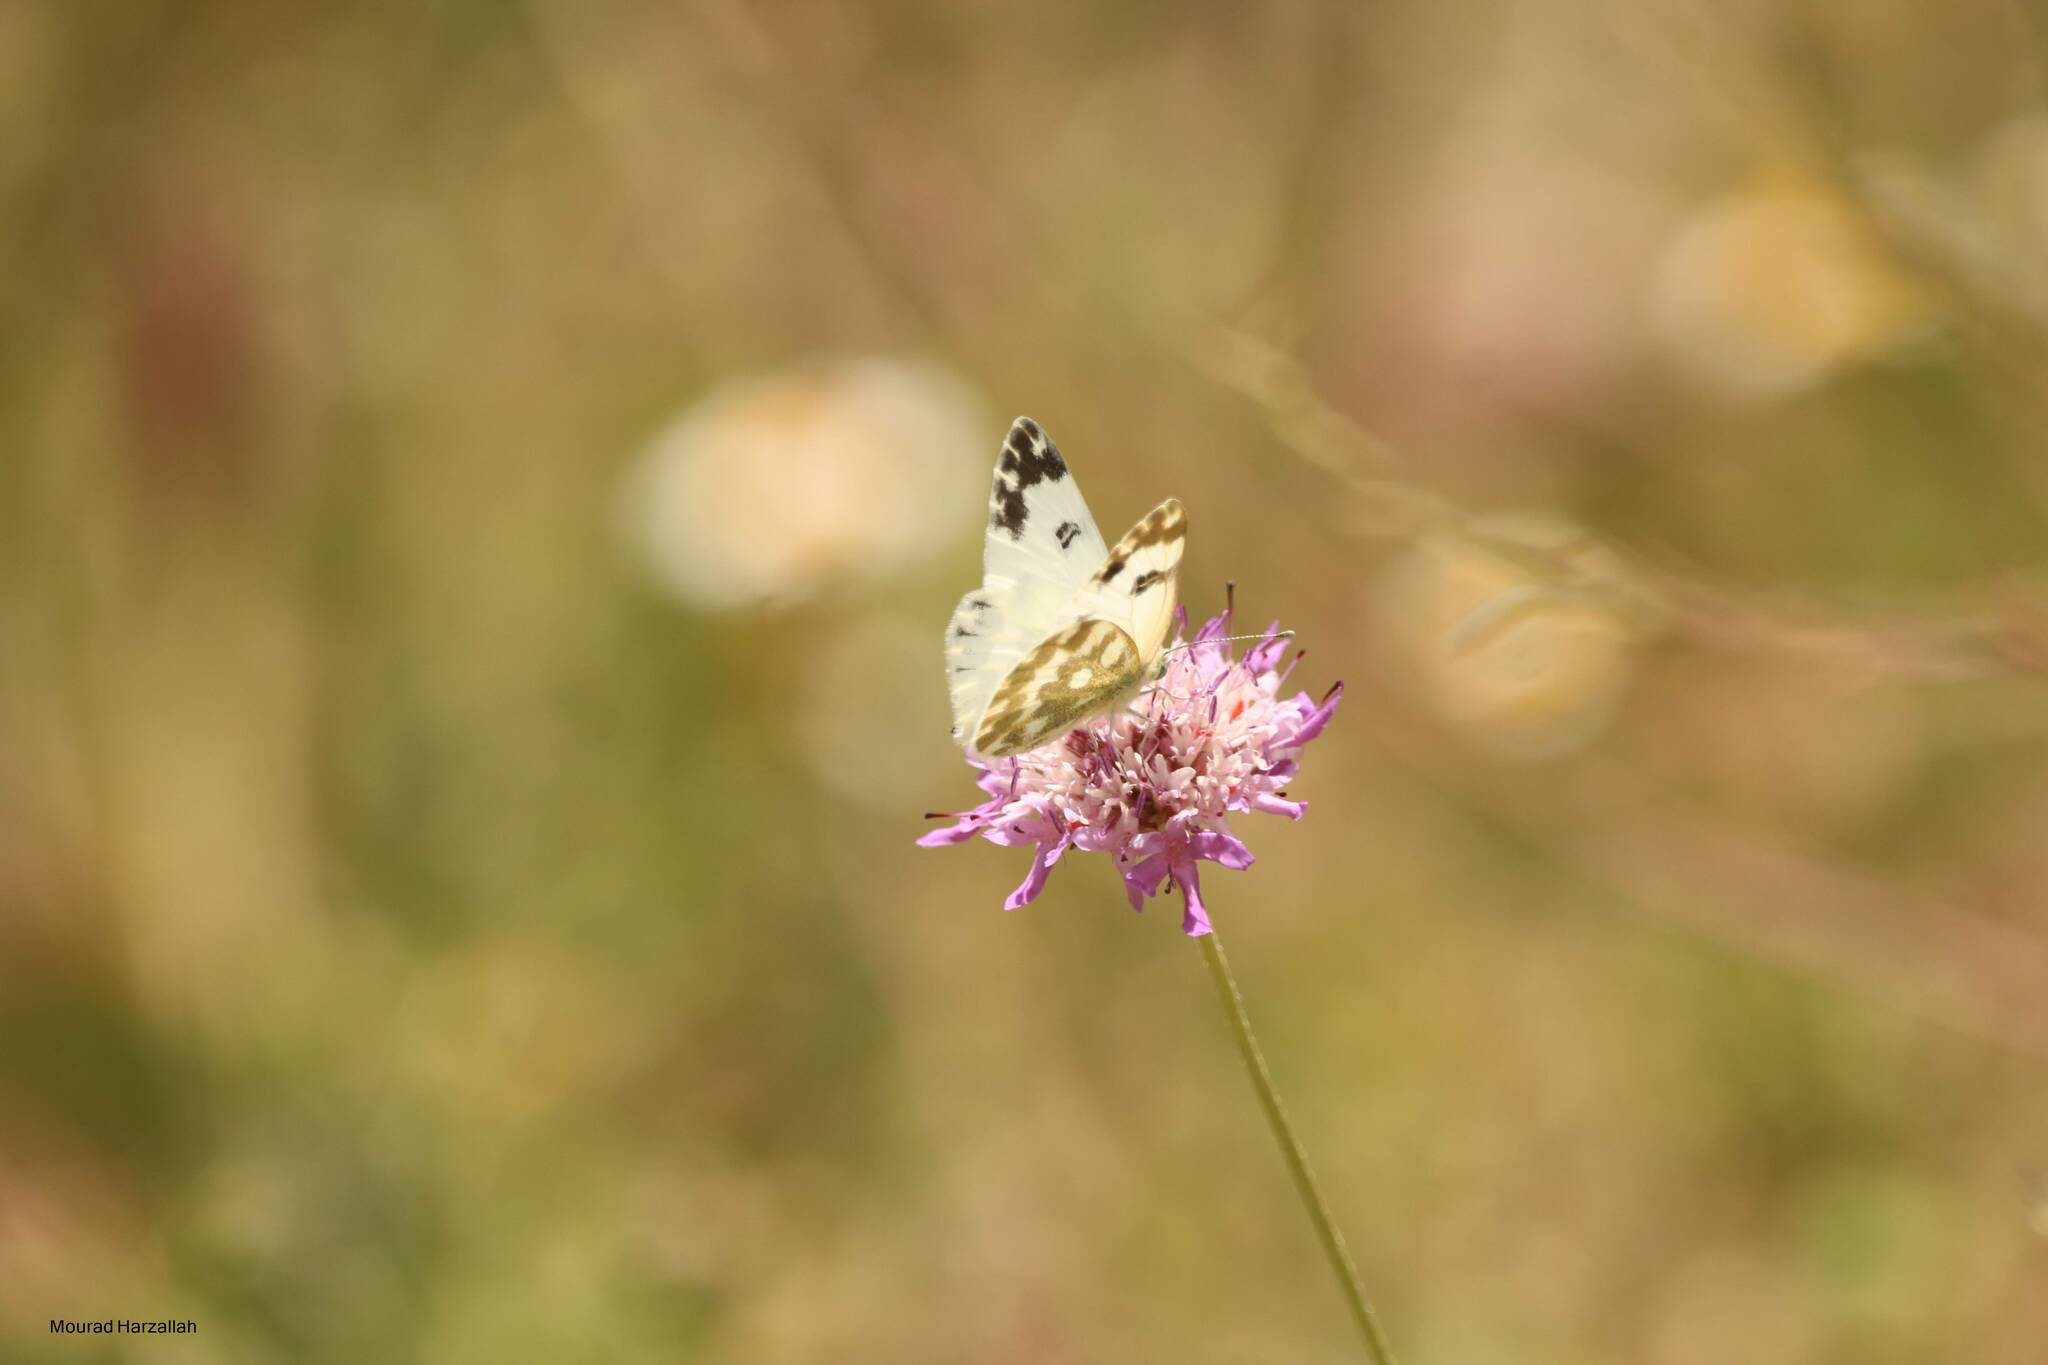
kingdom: Animalia
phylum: Arthropoda
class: Insecta
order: Lepidoptera
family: Pieridae
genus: Pontia
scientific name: Pontia daplidice
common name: Bath white
